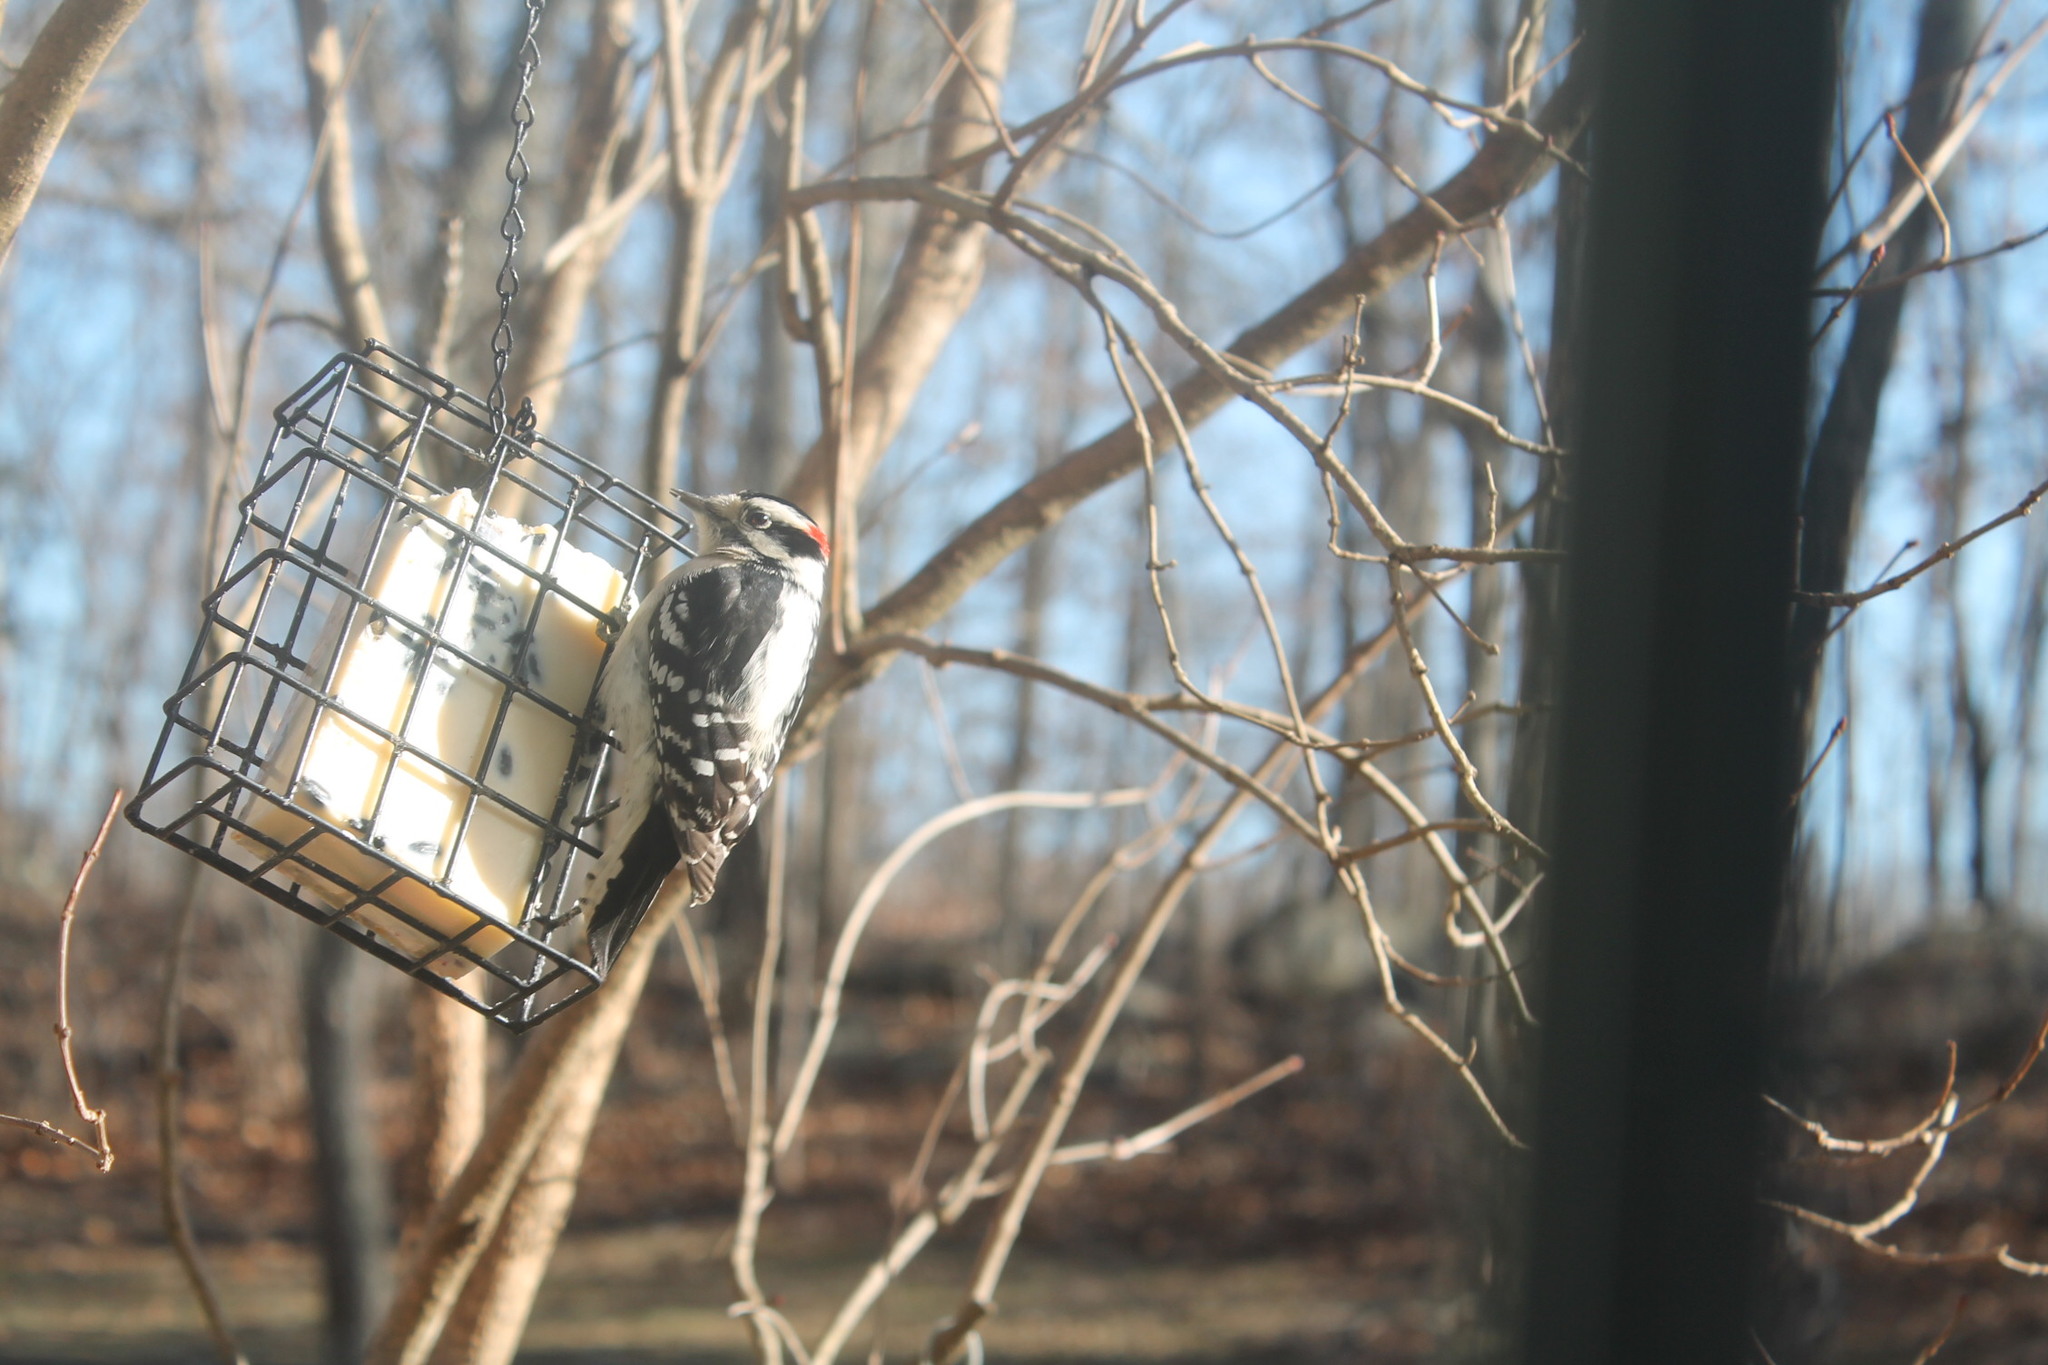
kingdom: Animalia
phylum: Chordata
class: Aves
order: Piciformes
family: Picidae
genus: Dryobates
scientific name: Dryobates pubescens
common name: Downy woodpecker
